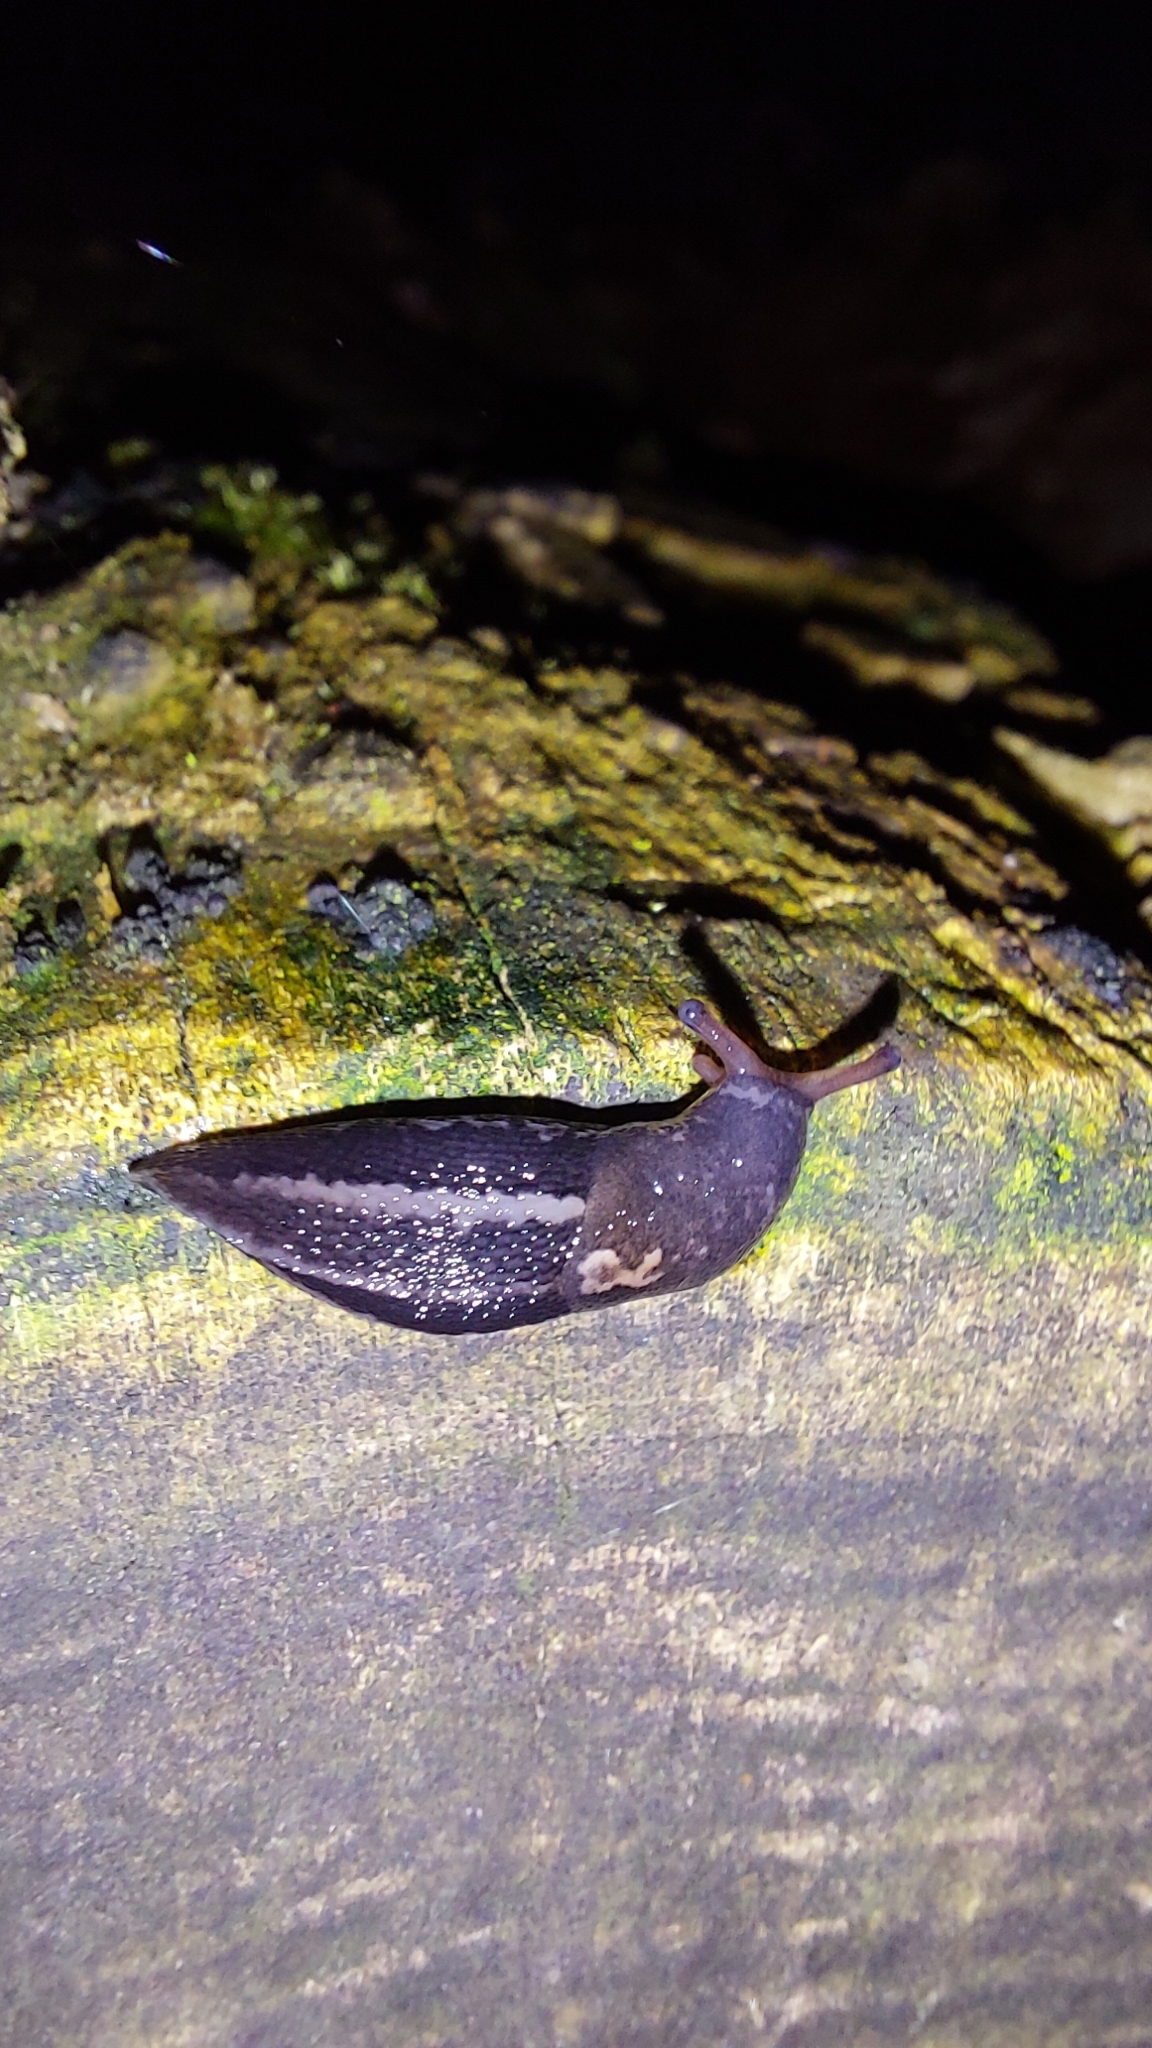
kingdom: Animalia
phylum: Mollusca
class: Gastropoda
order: Stylommatophora
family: Limacidae
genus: Limax
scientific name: Limax maximus
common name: Great grey slug
